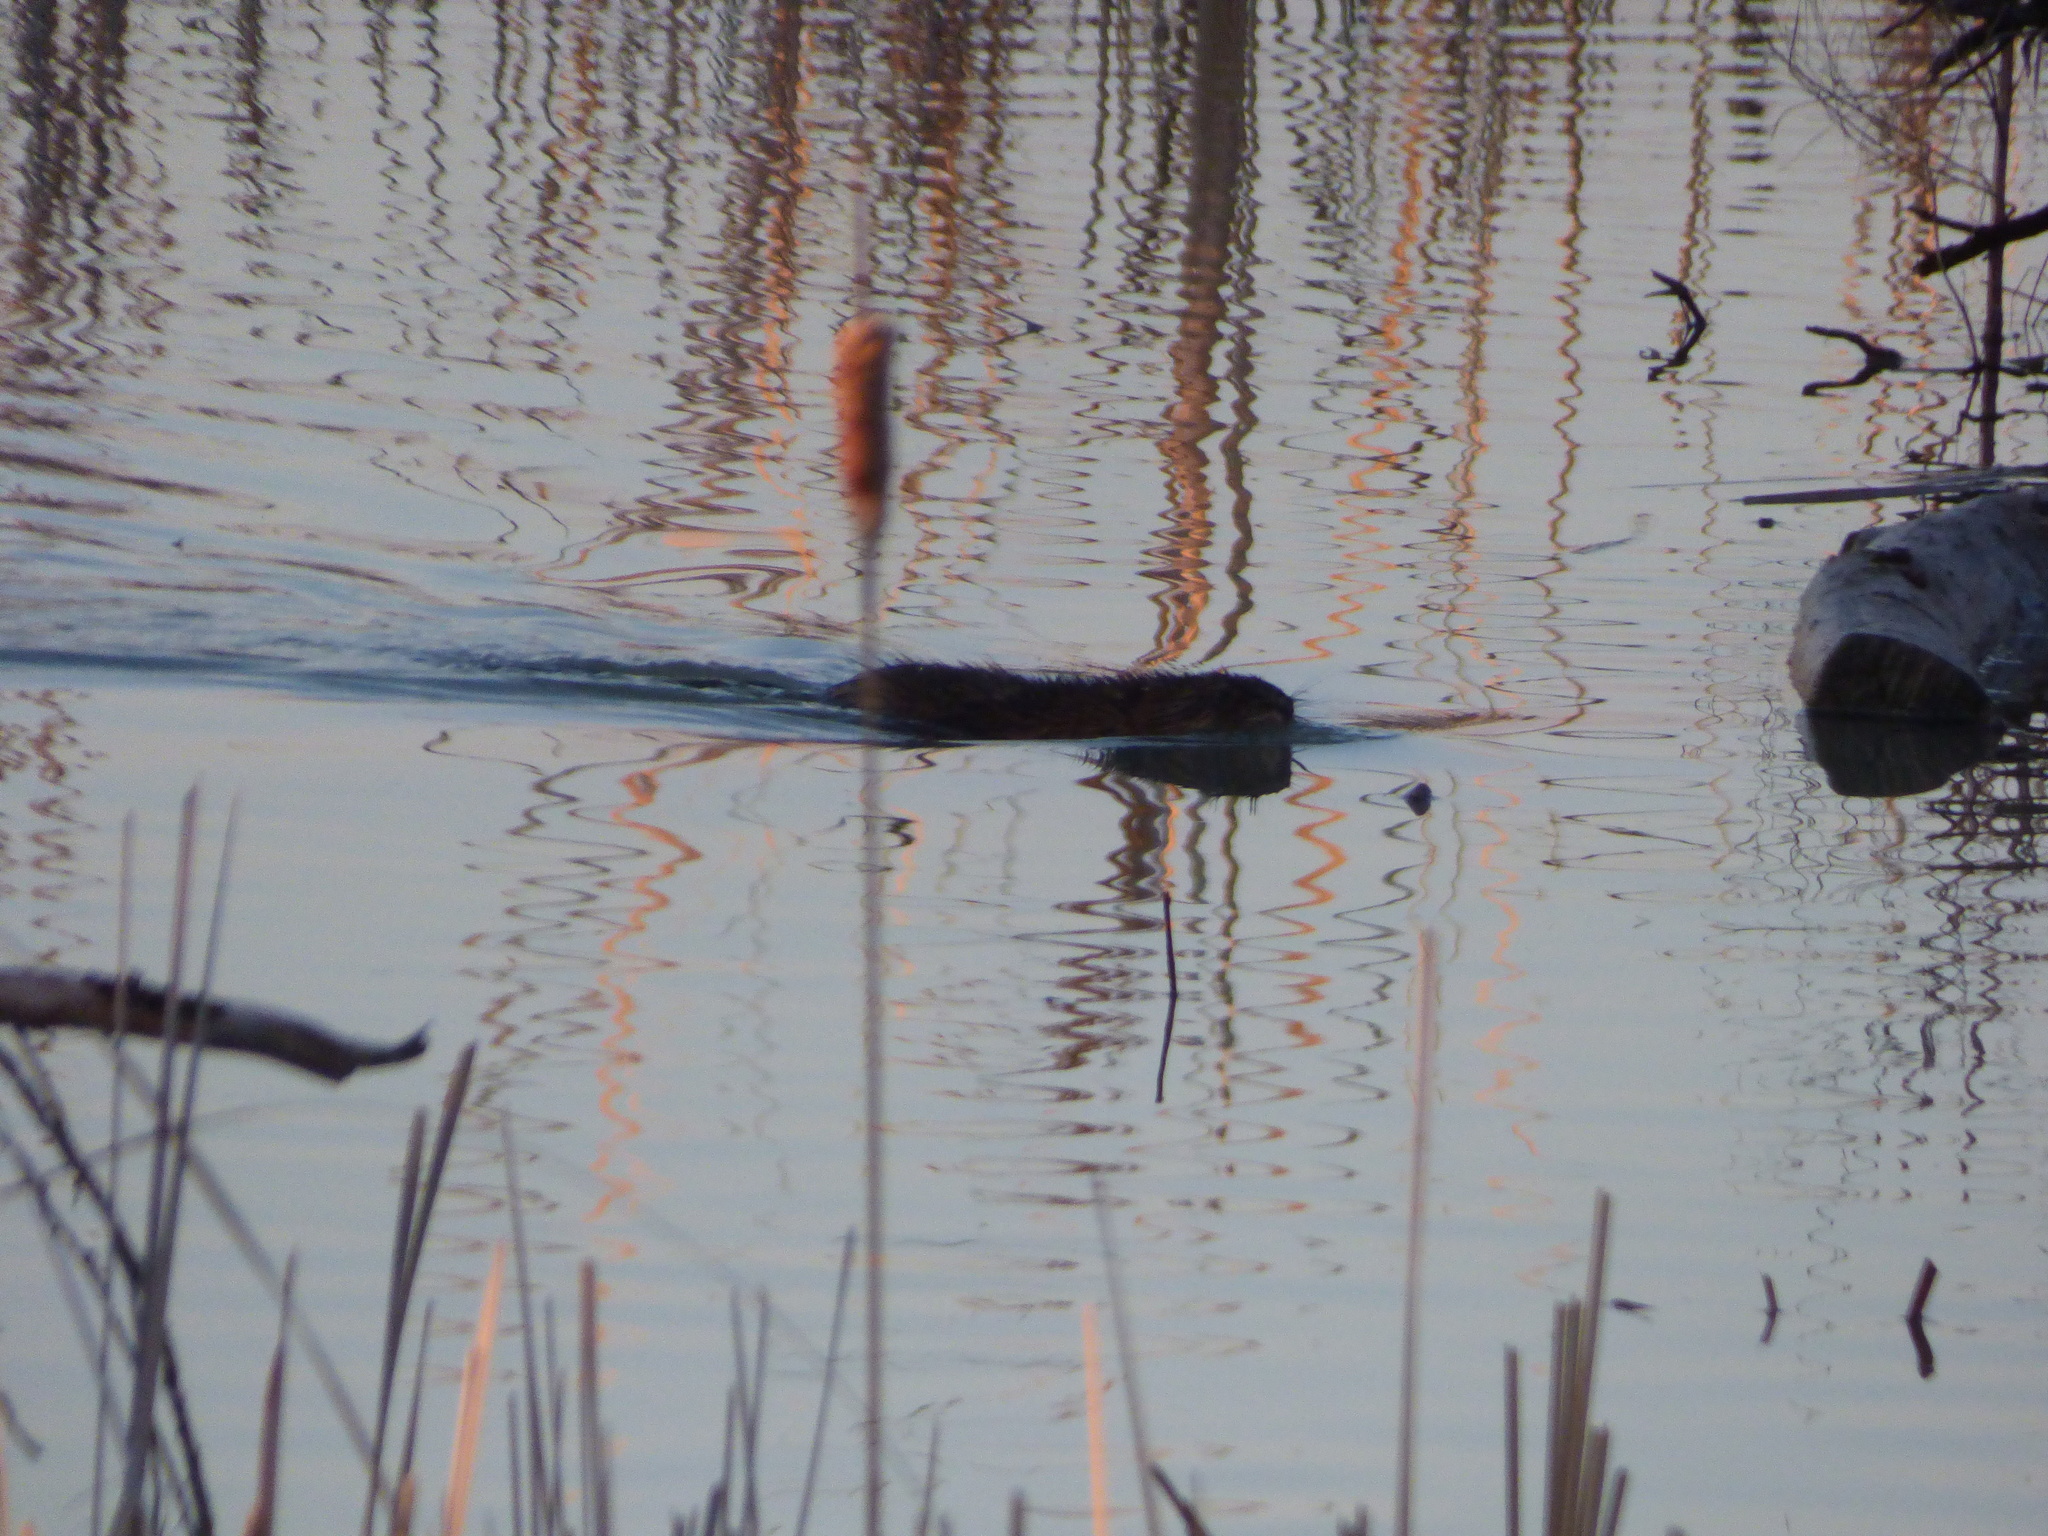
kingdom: Animalia
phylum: Chordata
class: Mammalia
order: Rodentia
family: Cricetidae
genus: Ondatra
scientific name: Ondatra zibethicus
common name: Muskrat
